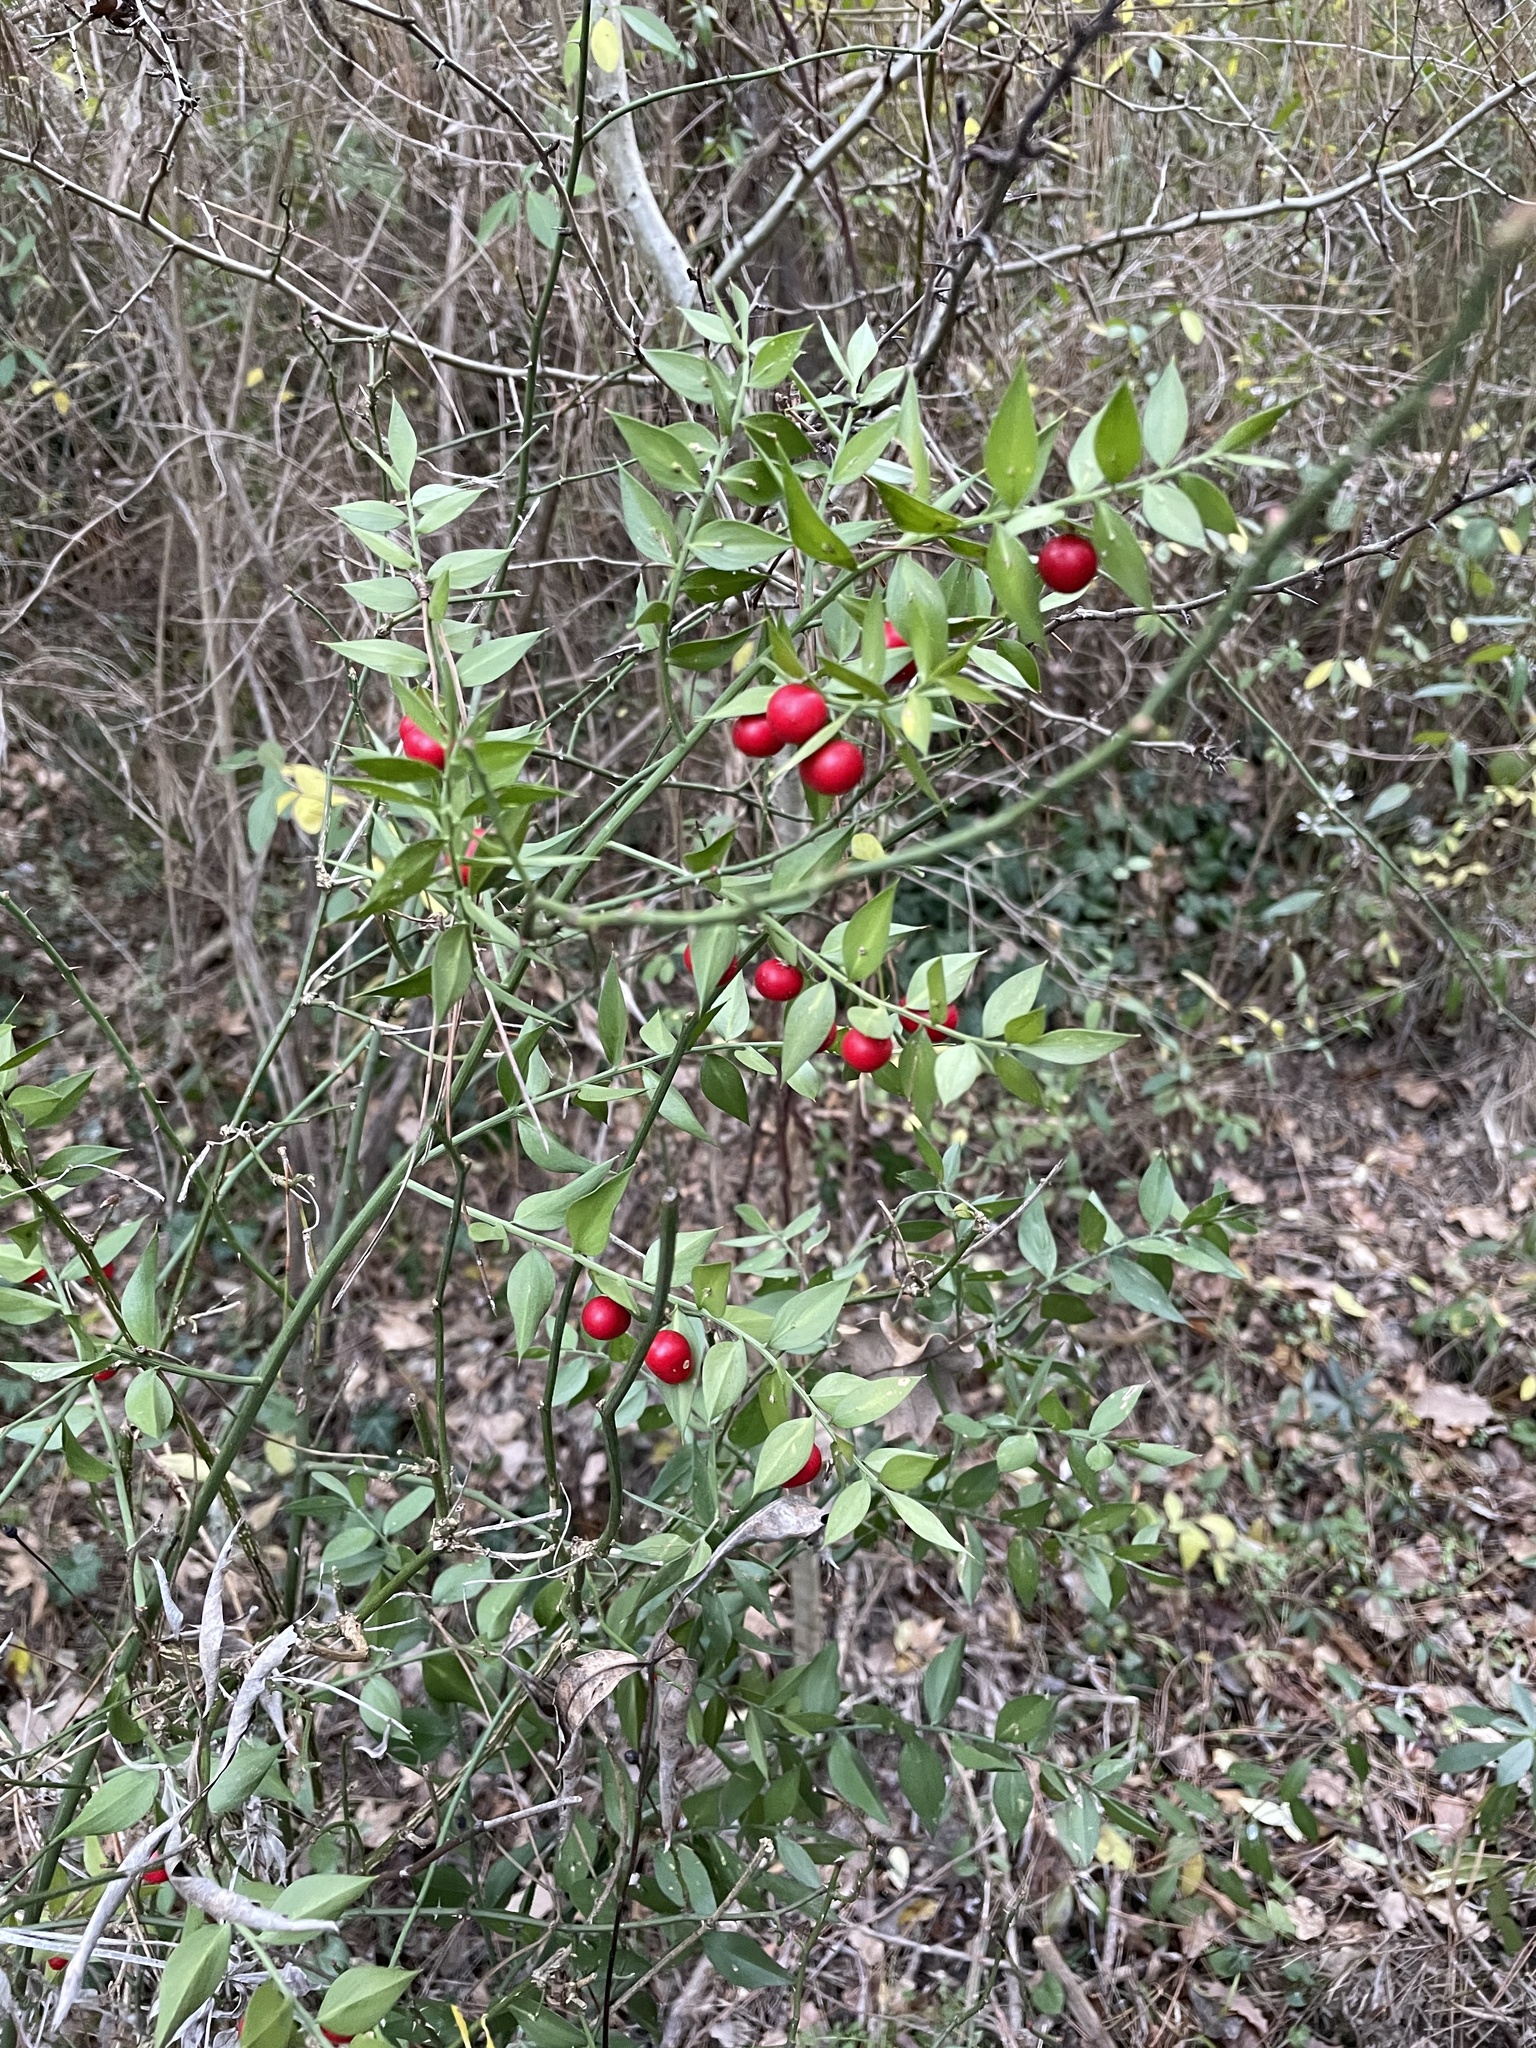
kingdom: Plantae
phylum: Tracheophyta
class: Liliopsida
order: Asparagales
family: Asparagaceae
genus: Ruscus
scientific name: Ruscus aculeatus
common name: Butcher's-broom
